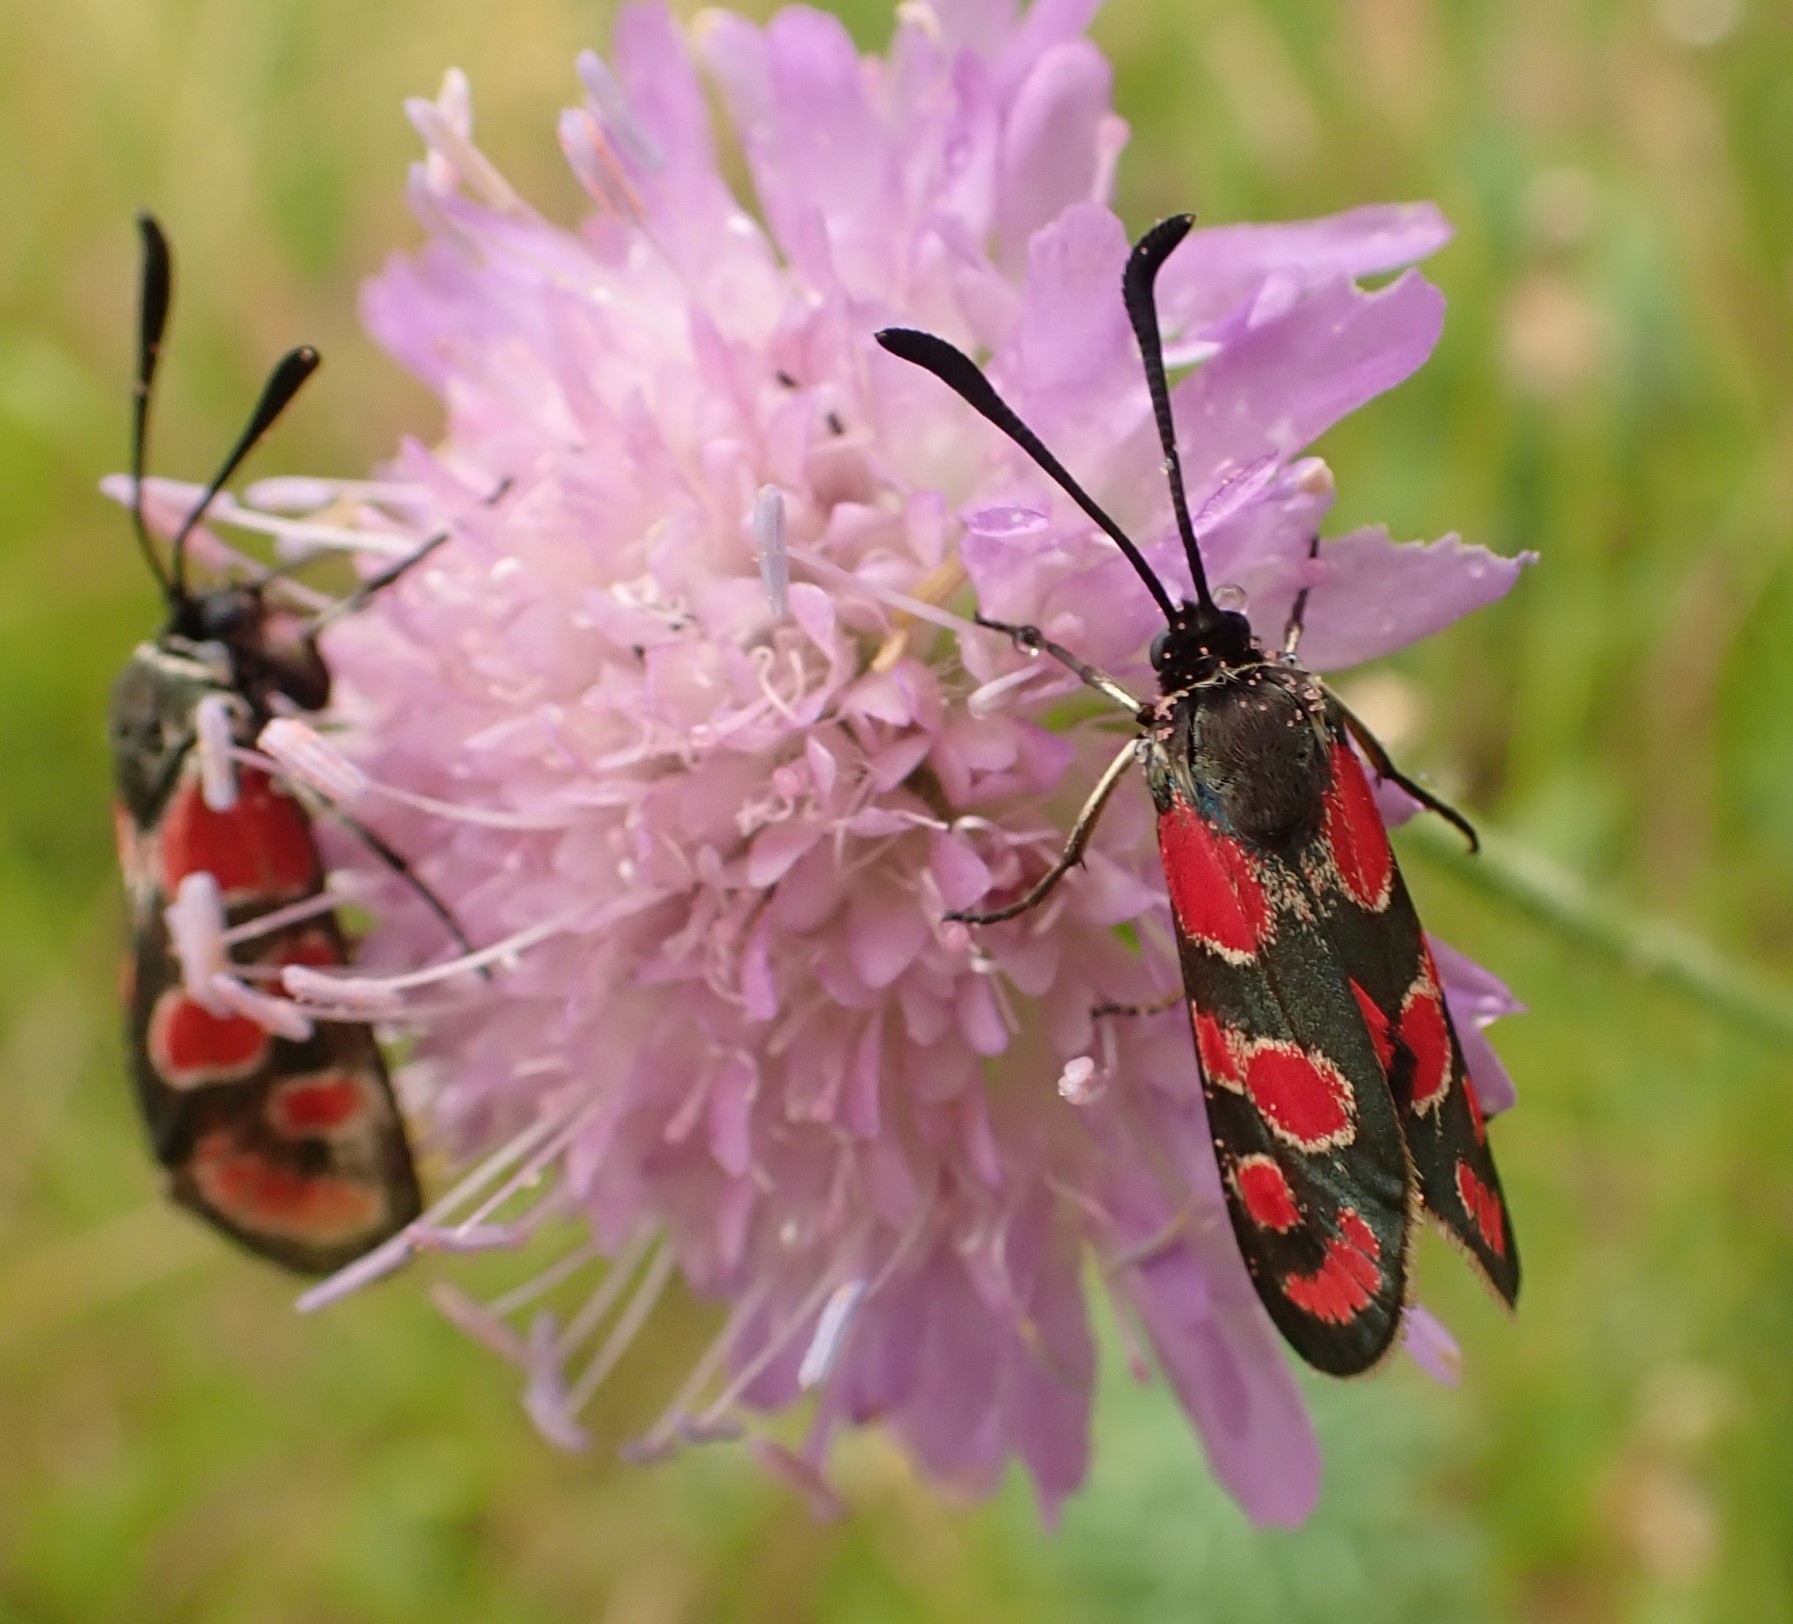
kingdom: Animalia
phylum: Arthropoda
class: Insecta
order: Lepidoptera
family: Zygaenidae
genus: Zygaena
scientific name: Zygaena carniolica
